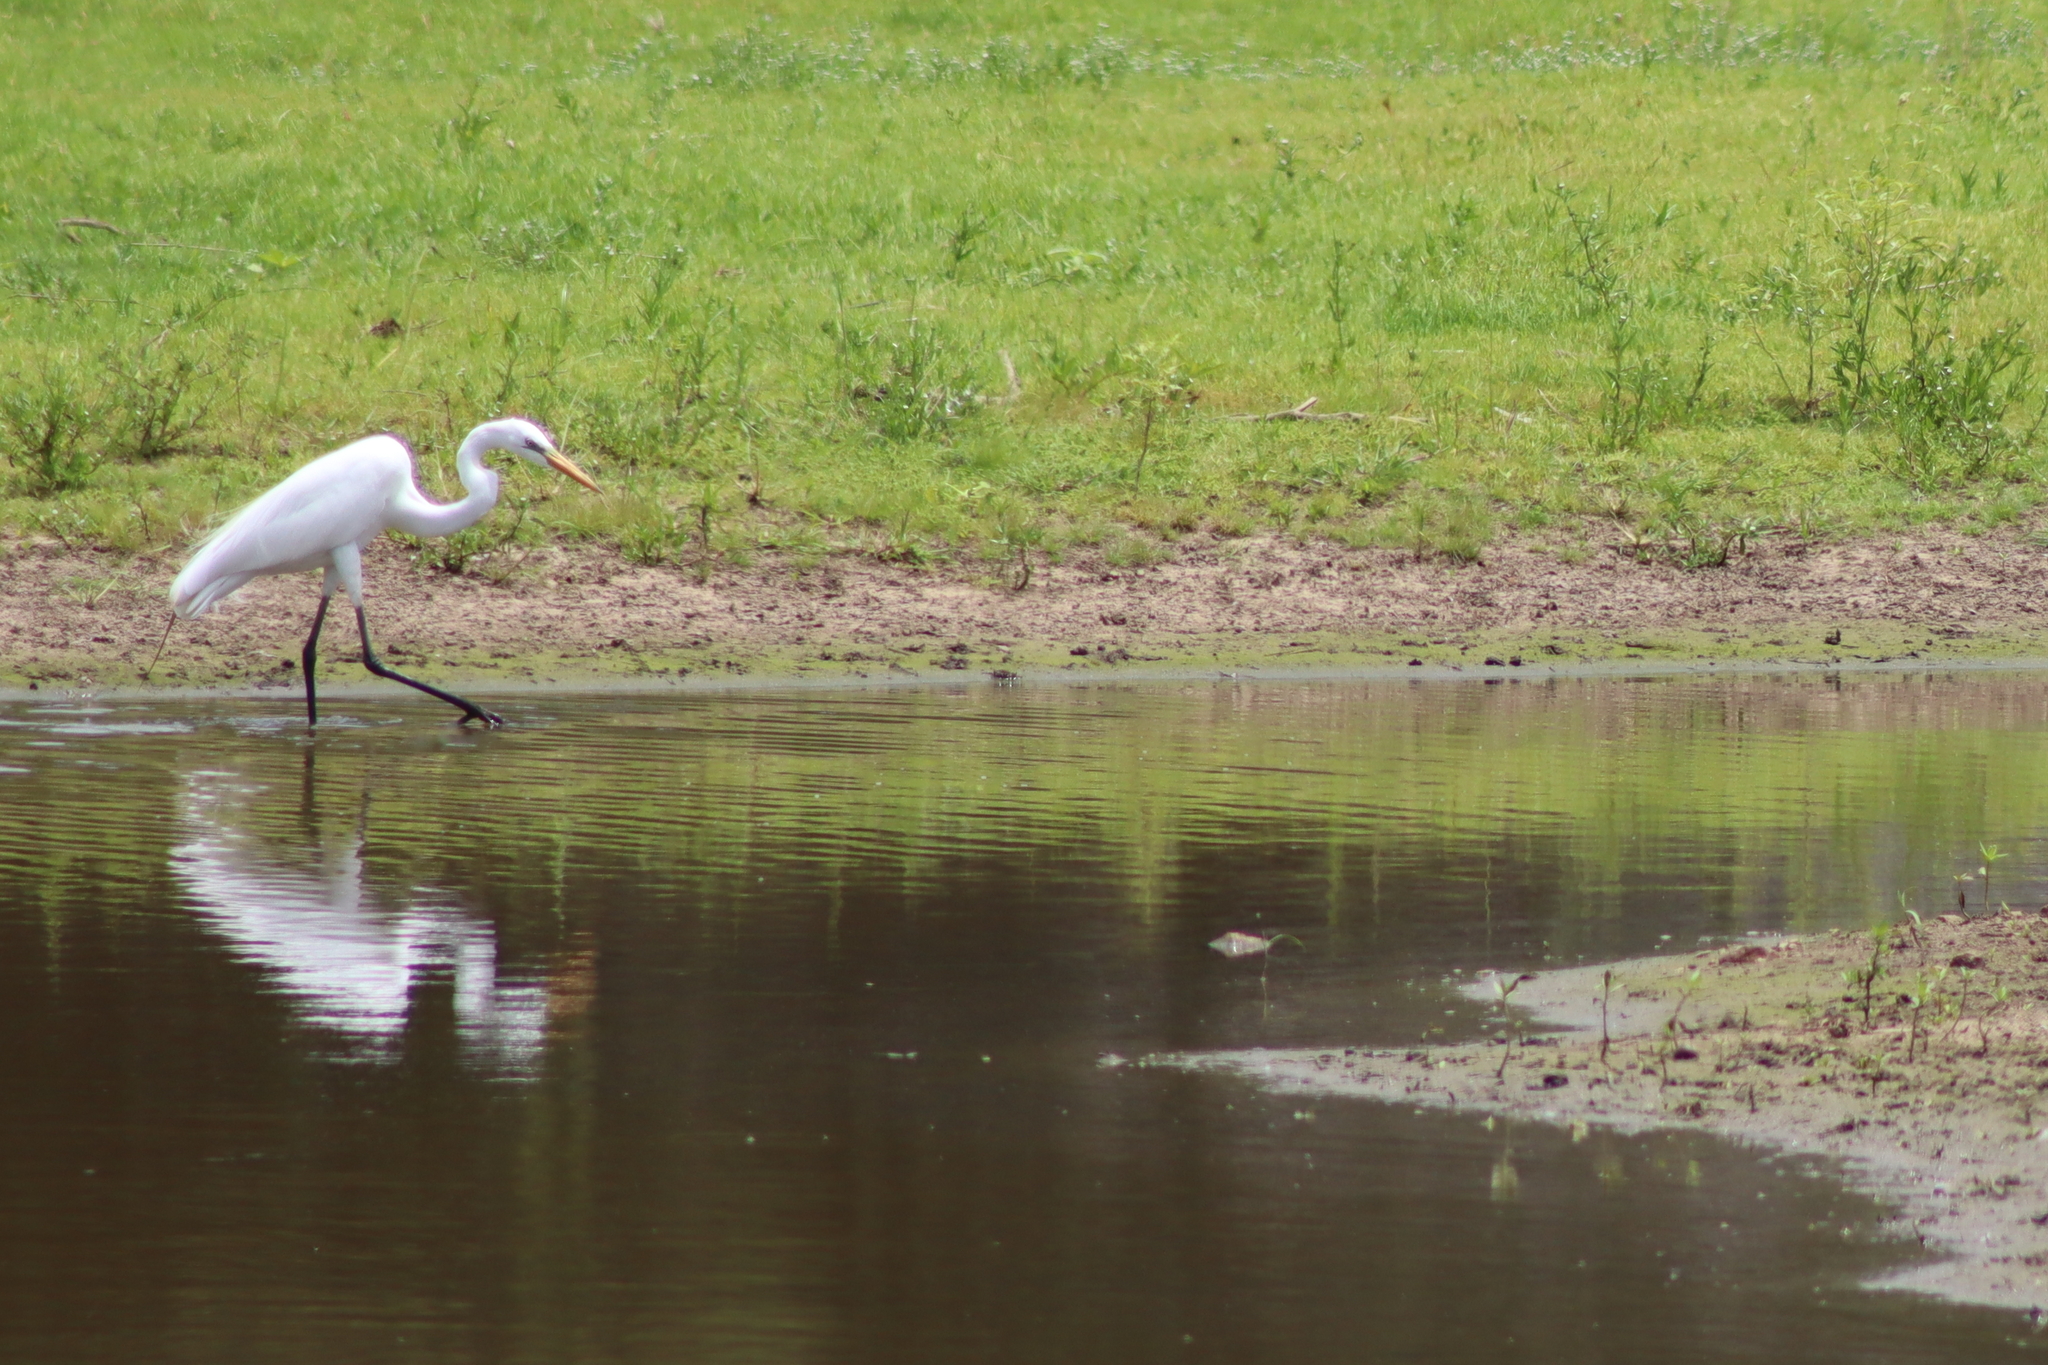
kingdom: Animalia
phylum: Chordata
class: Aves
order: Pelecaniformes
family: Ardeidae
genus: Ardea
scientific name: Ardea alba
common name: Great egret
